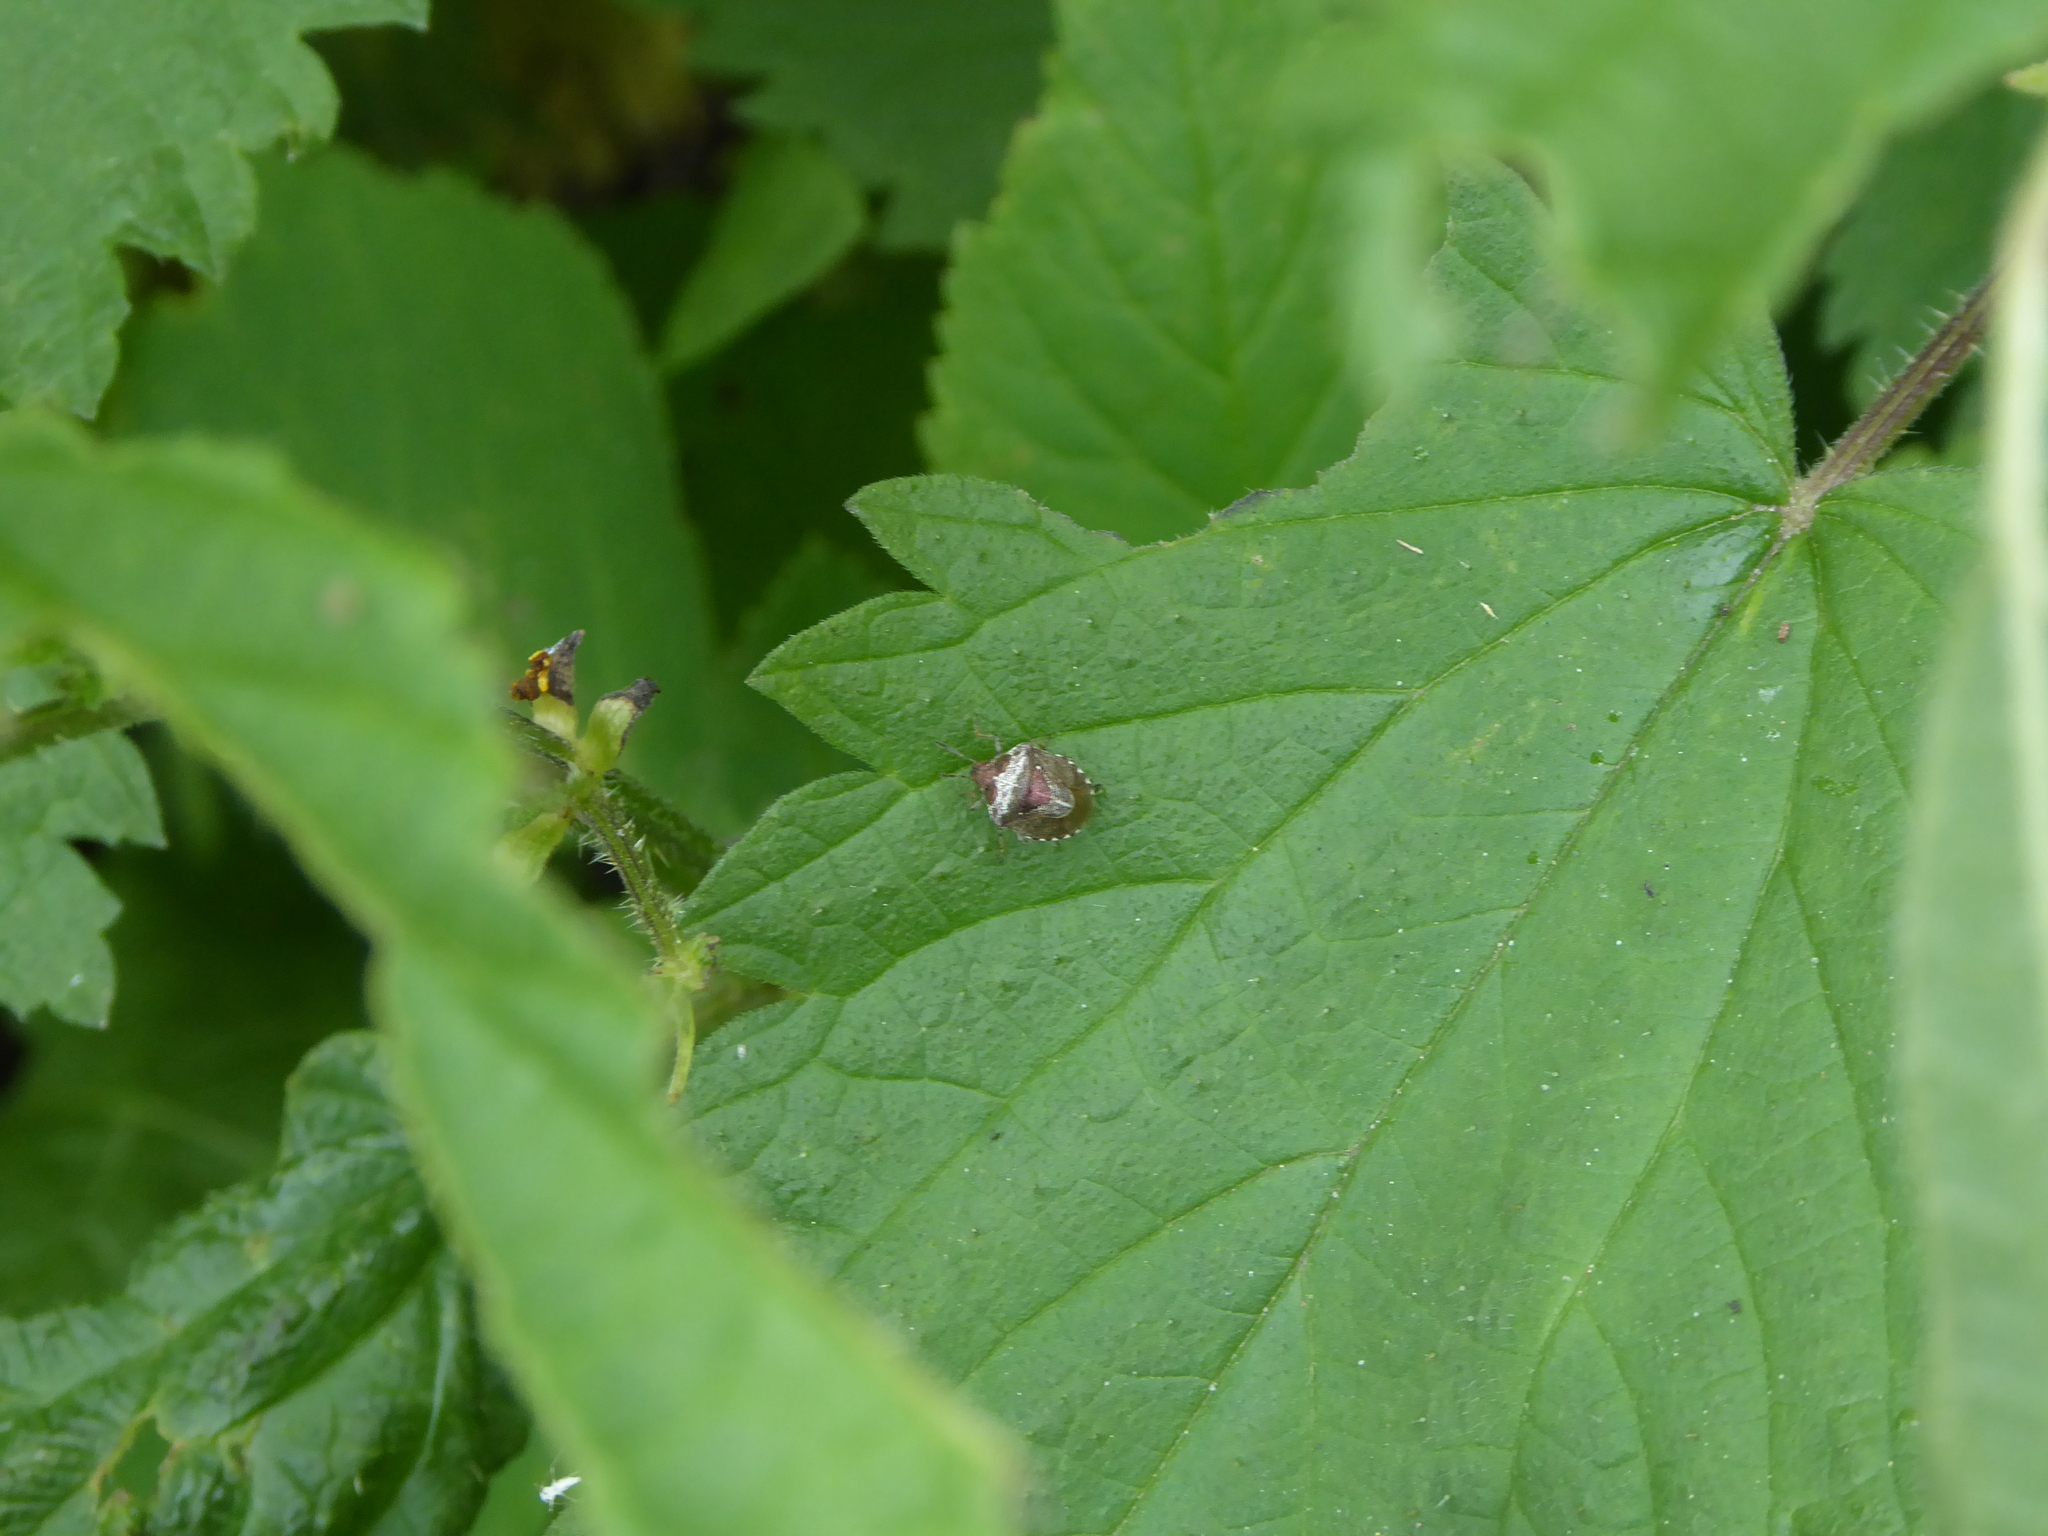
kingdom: Animalia
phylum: Arthropoda
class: Insecta
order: Hemiptera
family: Pentatomidae
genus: Eysarcoris
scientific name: Eysarcoris venustissimus
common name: Woundwort shieldbug
